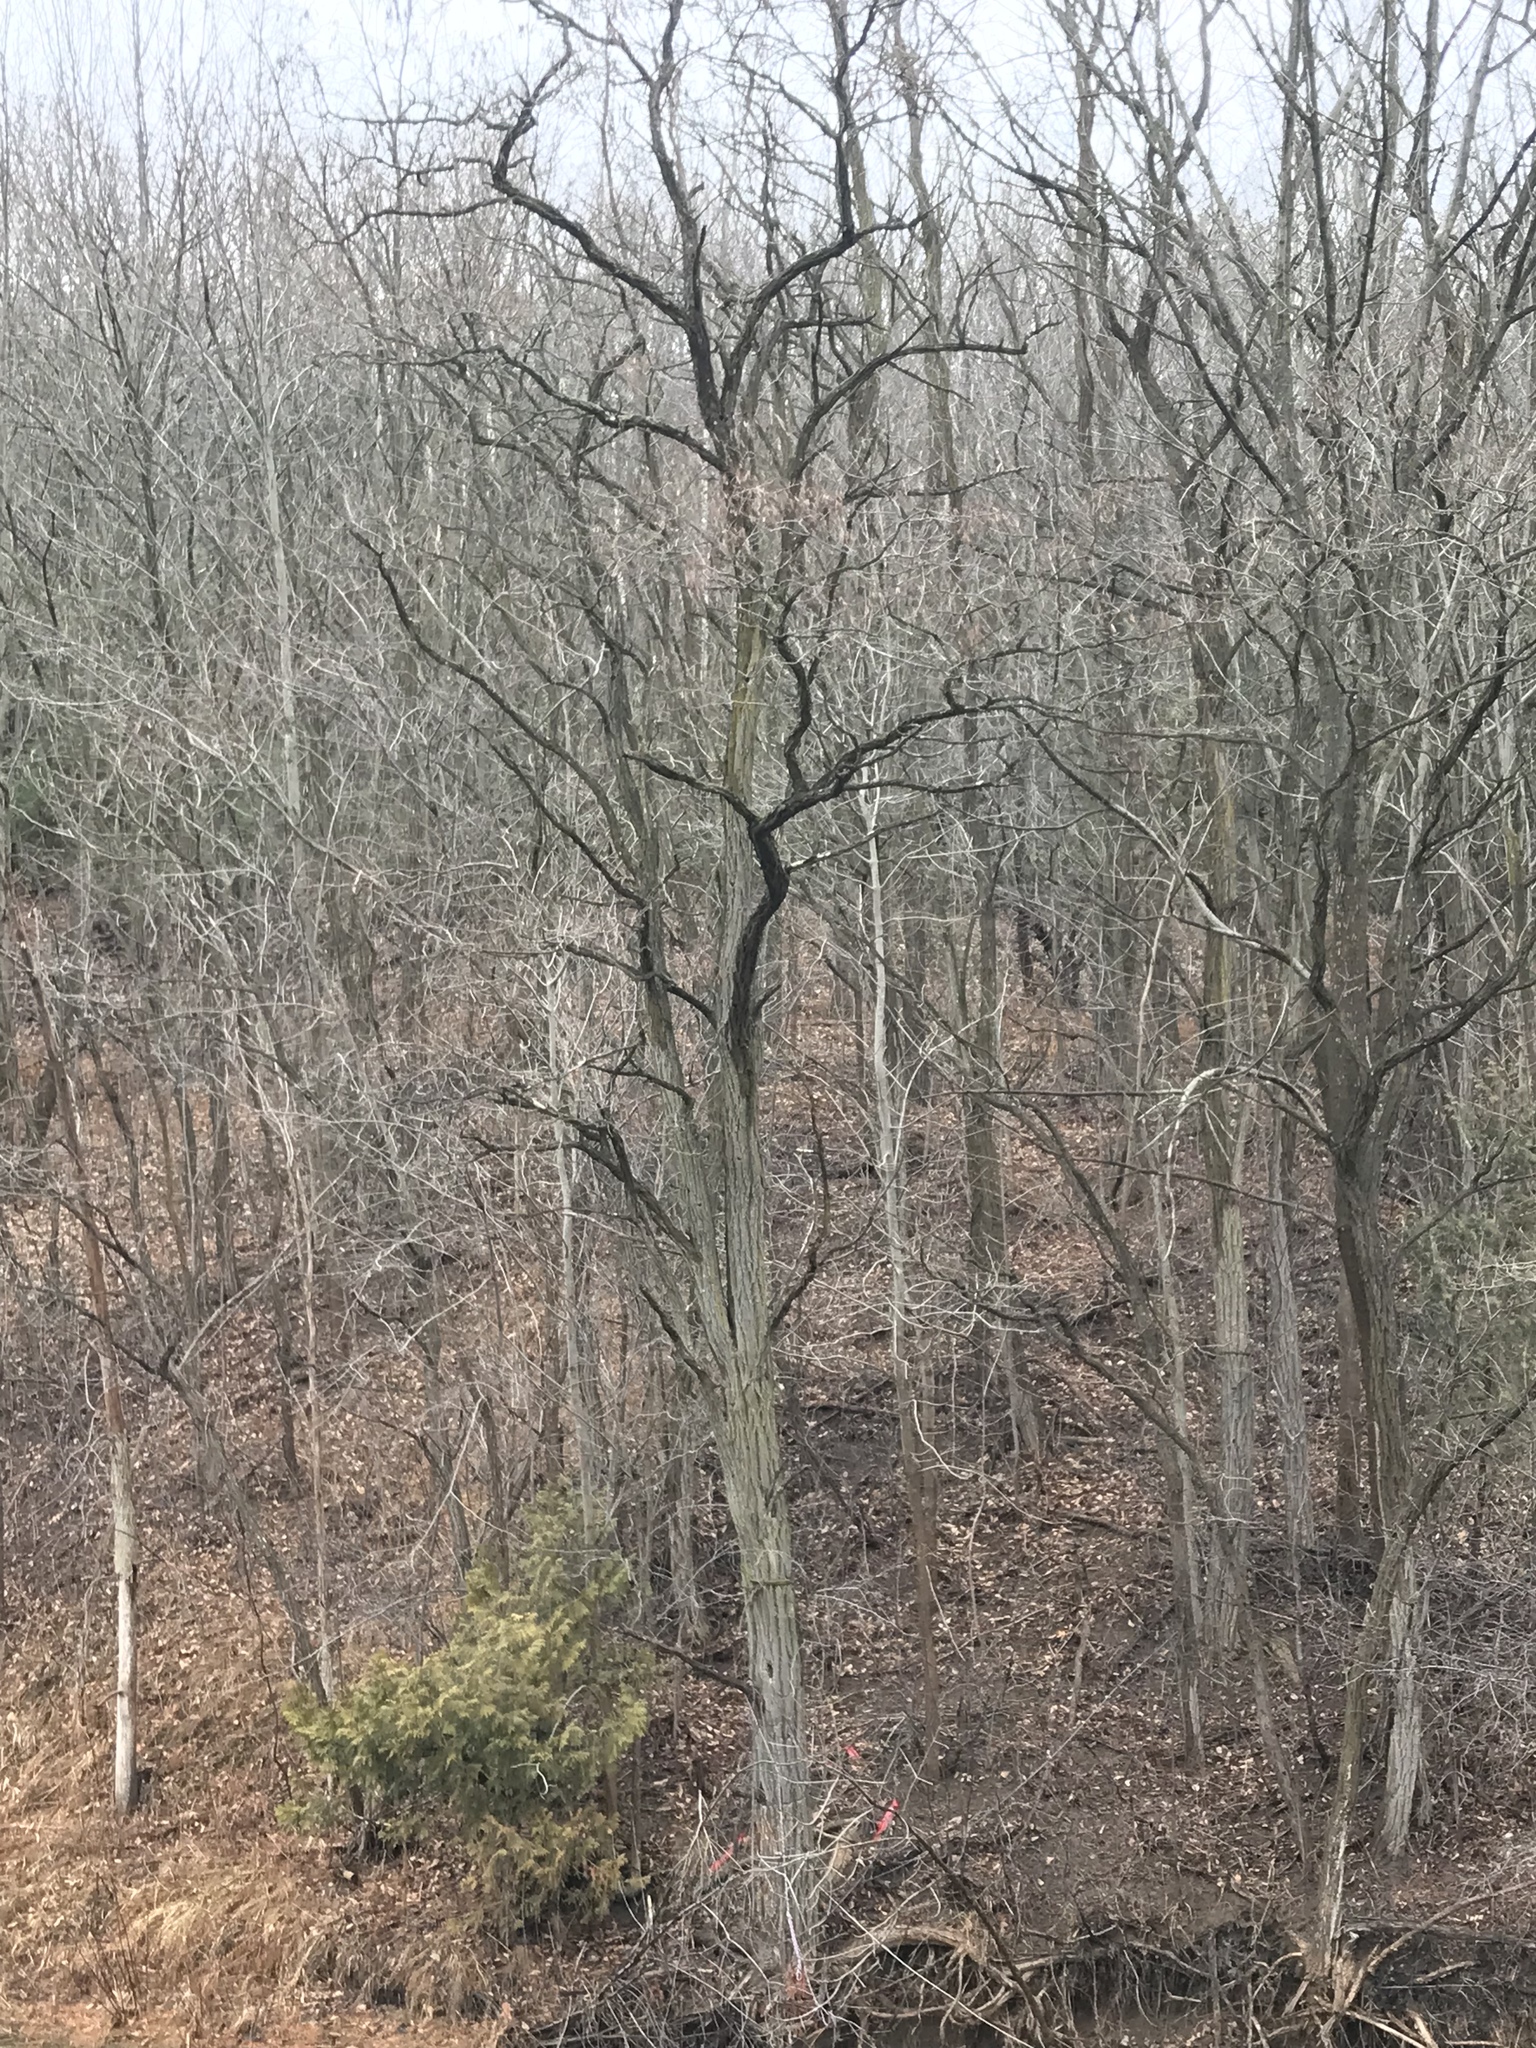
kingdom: Plantae
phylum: Tracheophyta
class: Magnoliopsida
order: Fabales
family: Fabaceae
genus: Robinia
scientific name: Robinia pseudoacacia
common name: Black locust
